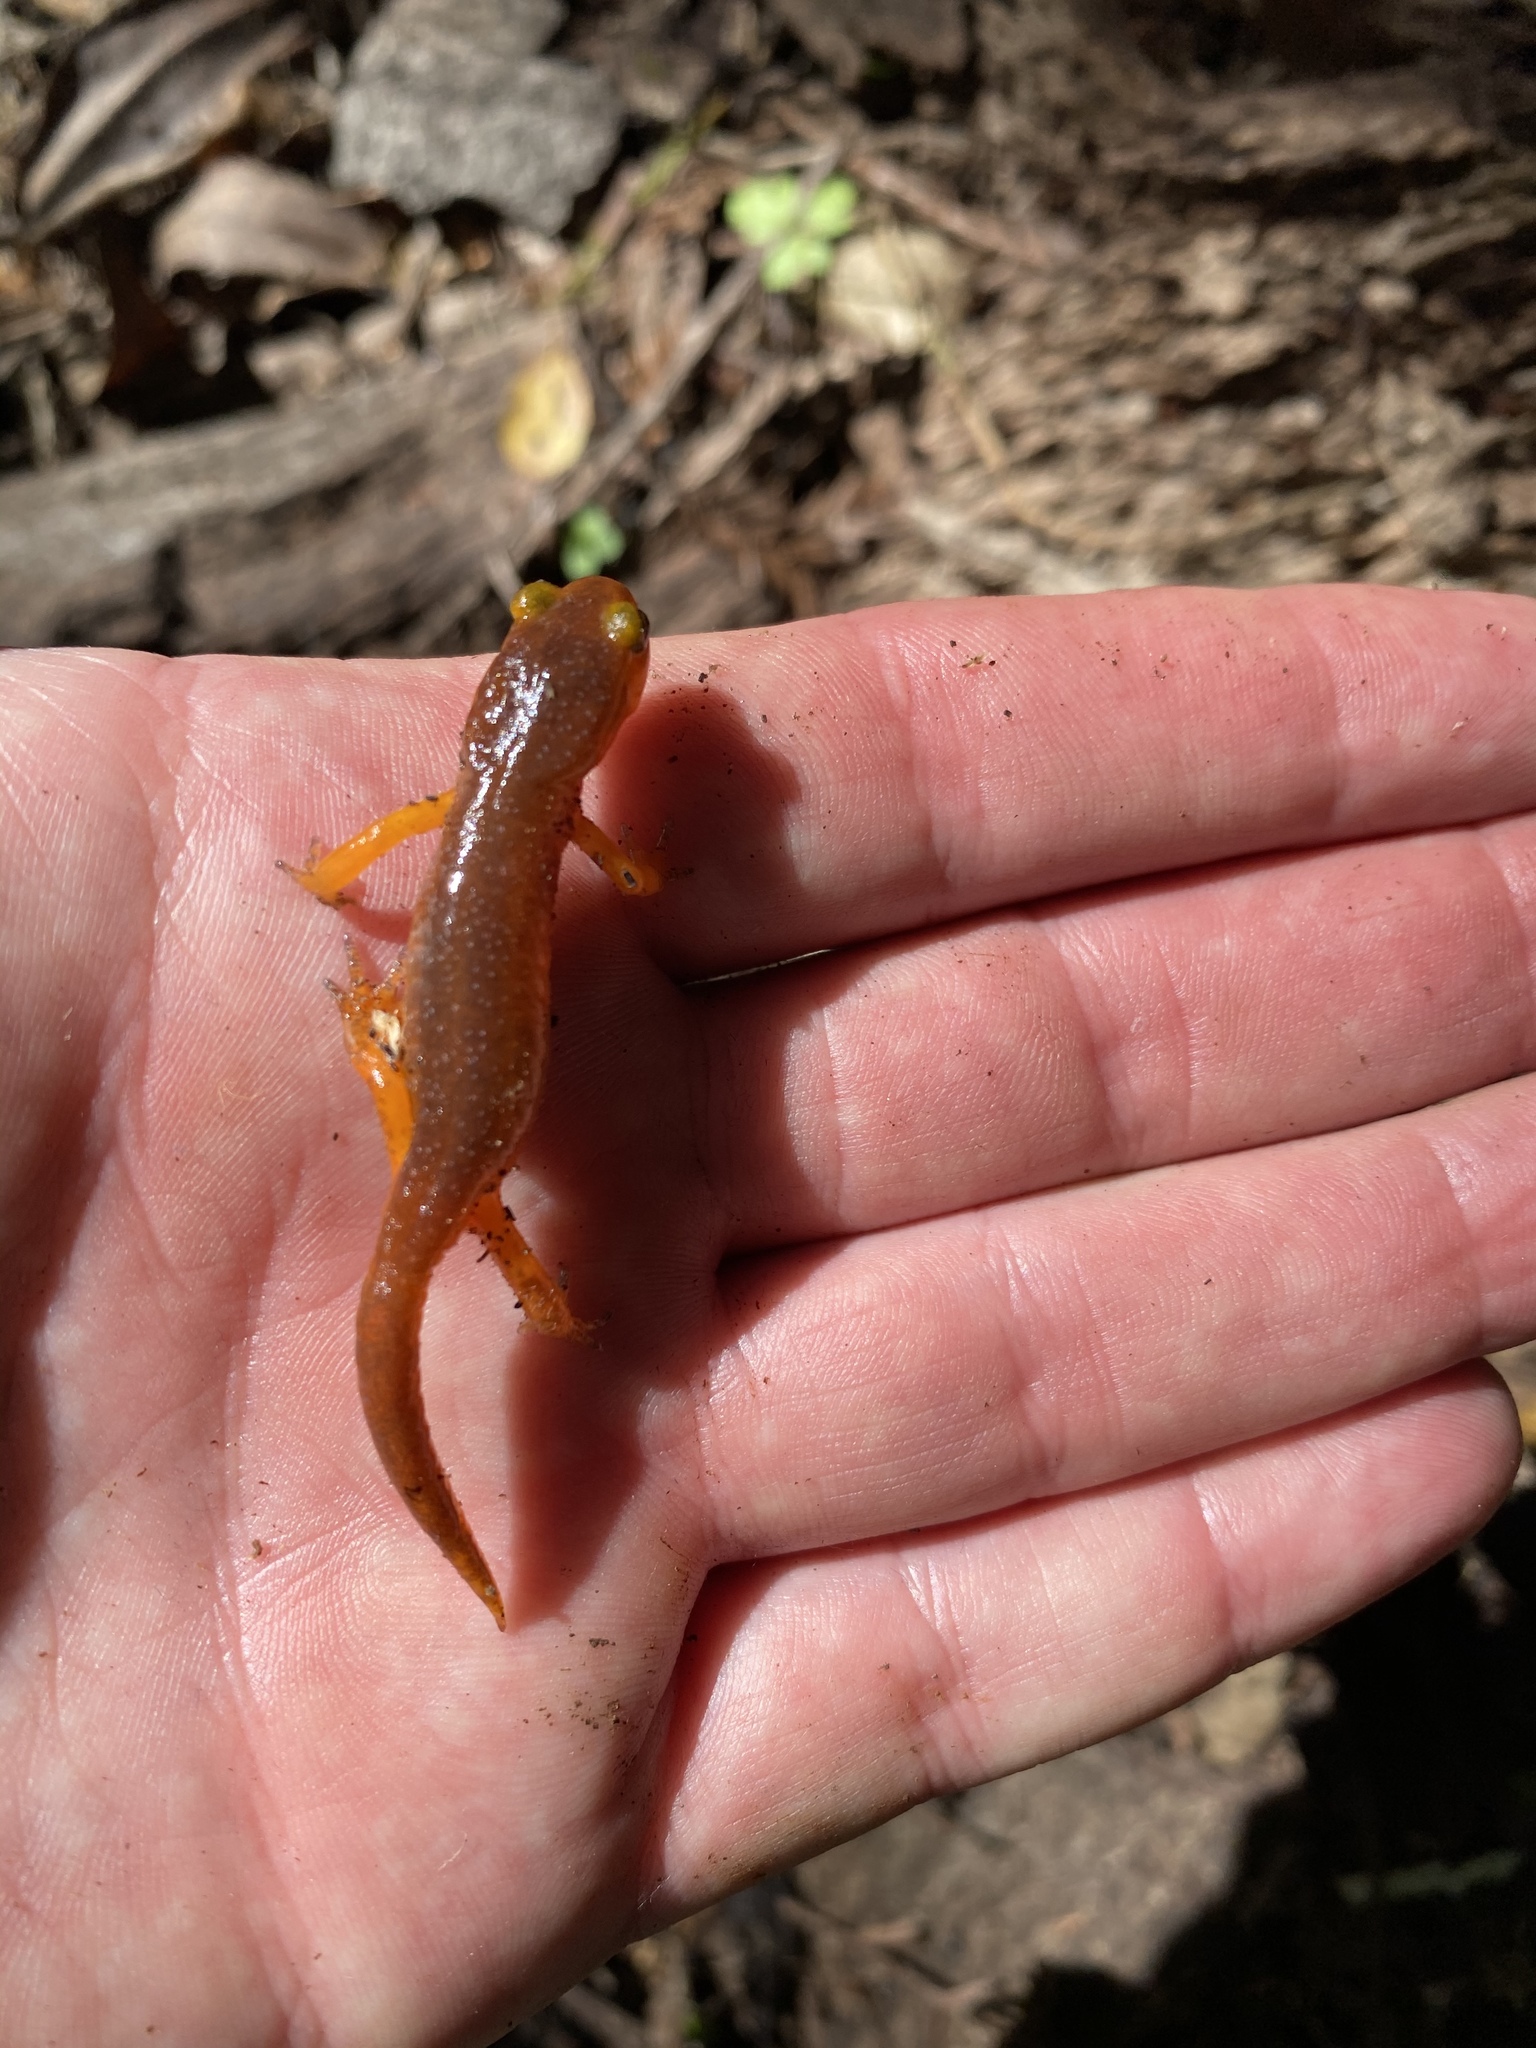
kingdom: Animalia
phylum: Chordata
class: Amphibia
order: Caudata
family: Plethodontidae
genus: Ensatina
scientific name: Ensatina eschscholtzii
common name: Ensatina
